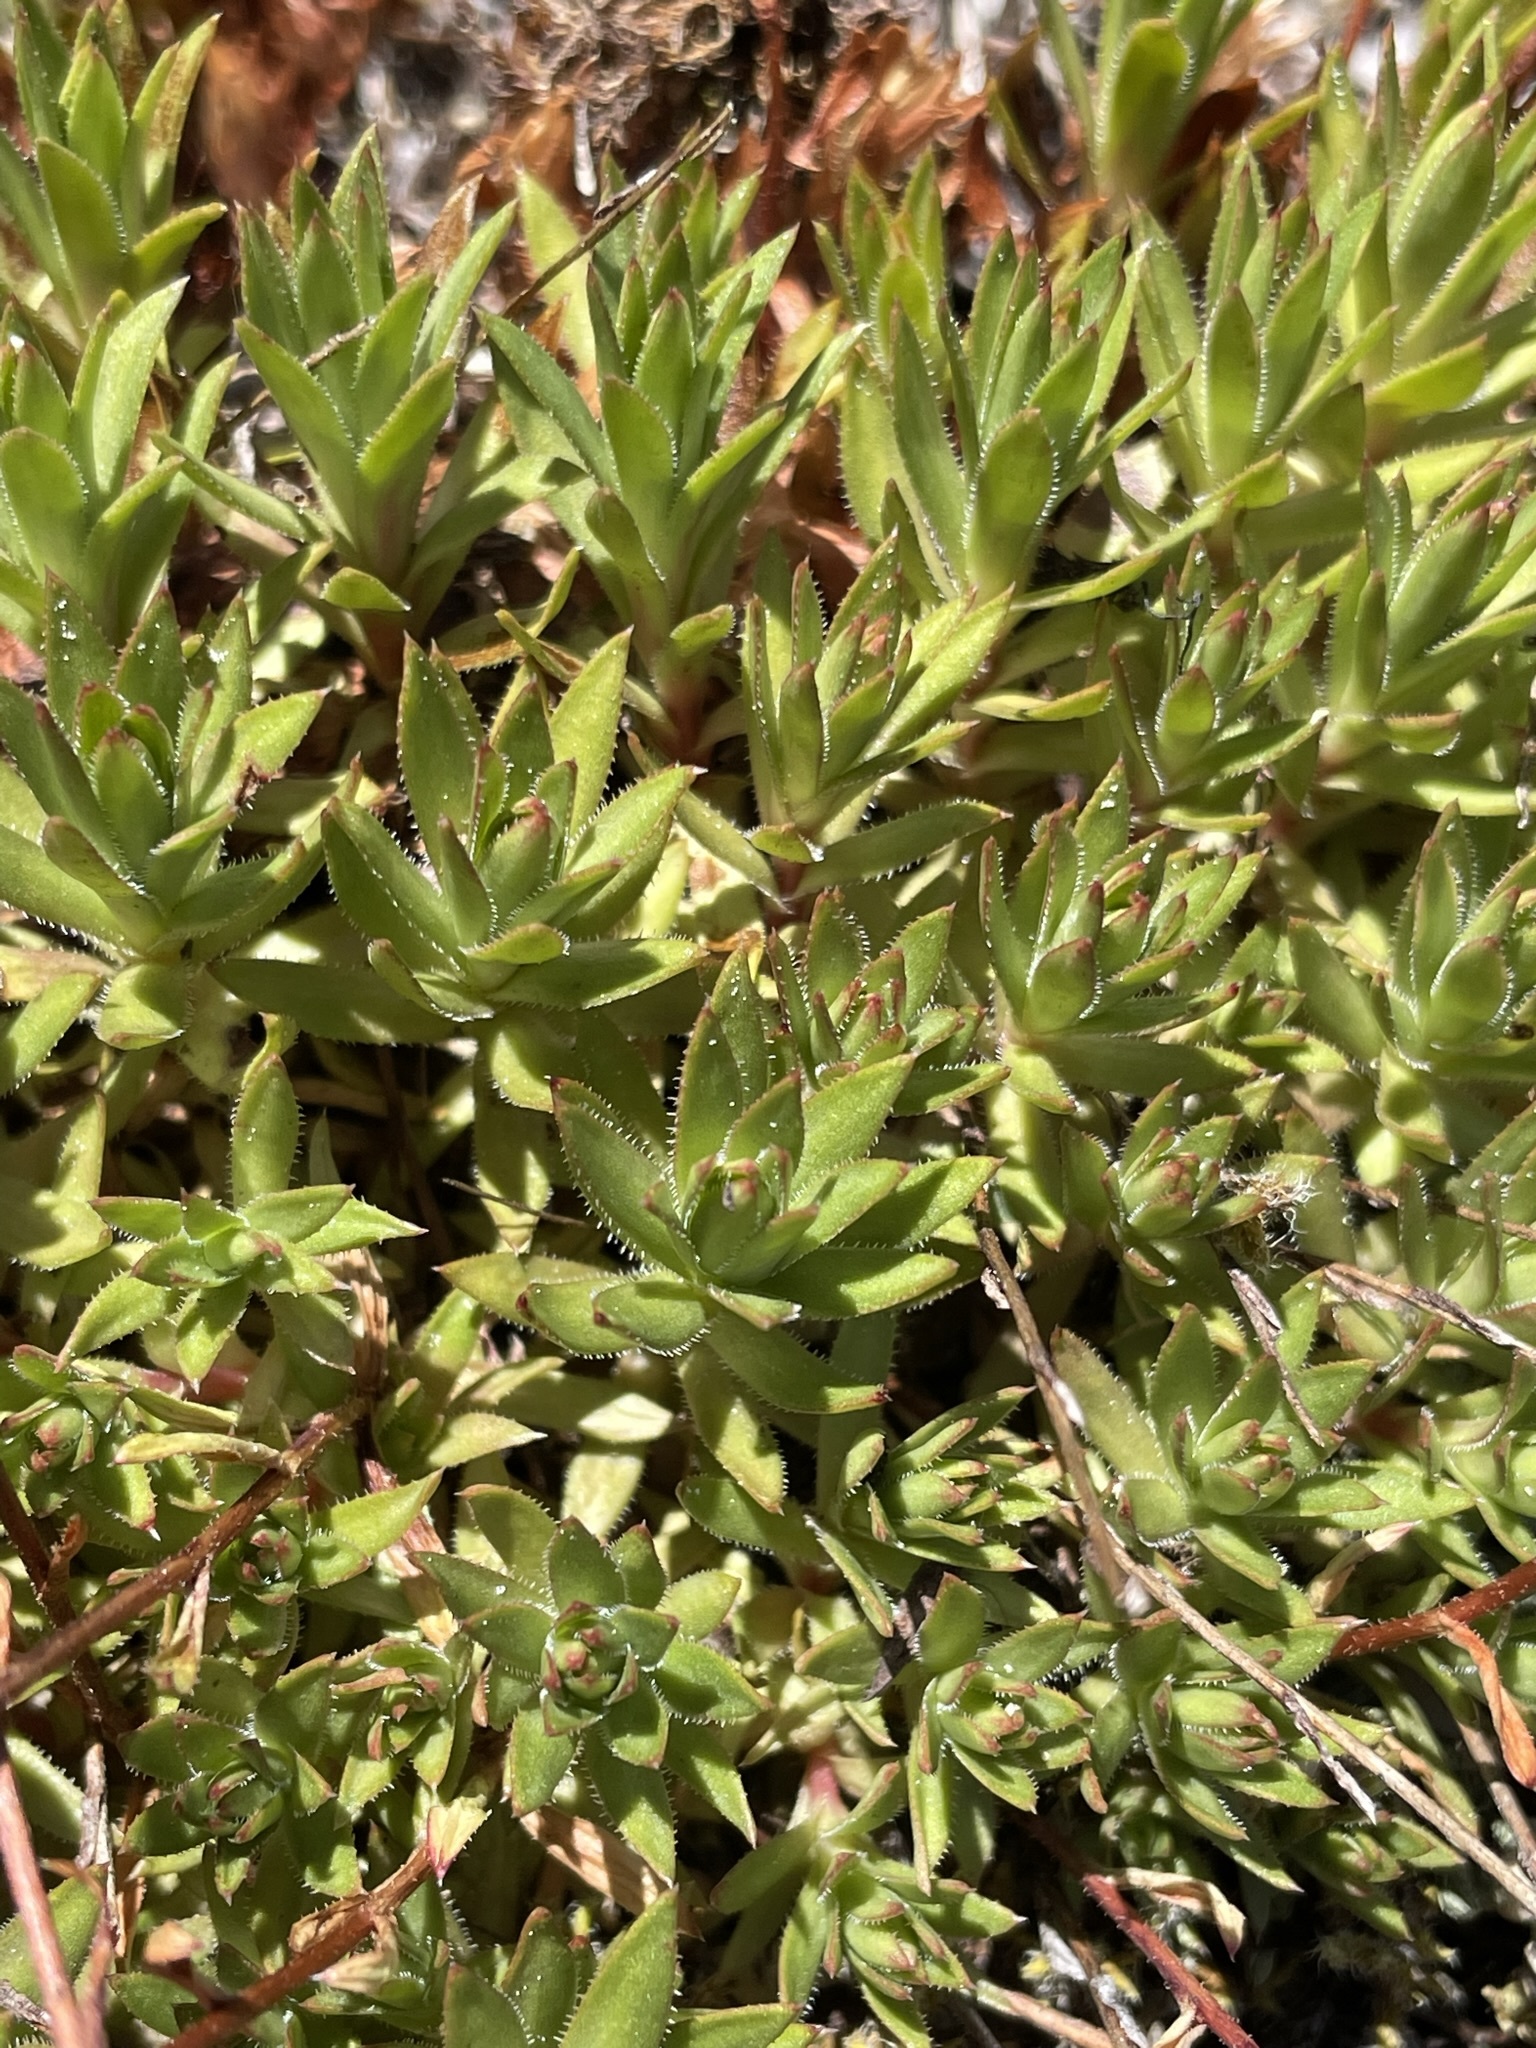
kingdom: Plantae
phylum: Tracheophyta
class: Magnoliopsida
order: Saxifragales
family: Saxifragaceae
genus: Saxifraga
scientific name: Saxifraga bronchialis
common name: Matted saxifrage
